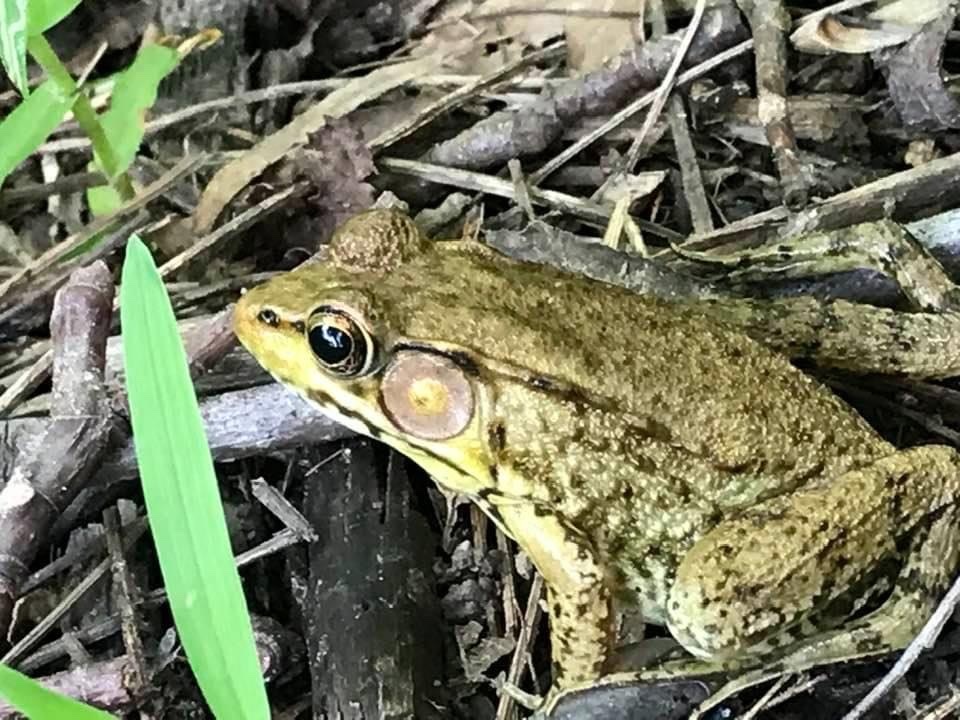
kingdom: Animalia
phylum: Chordata
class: Amphibia
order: Anura
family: Ranidae
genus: Lithobates
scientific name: Lithobates clamitans
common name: Green frog
